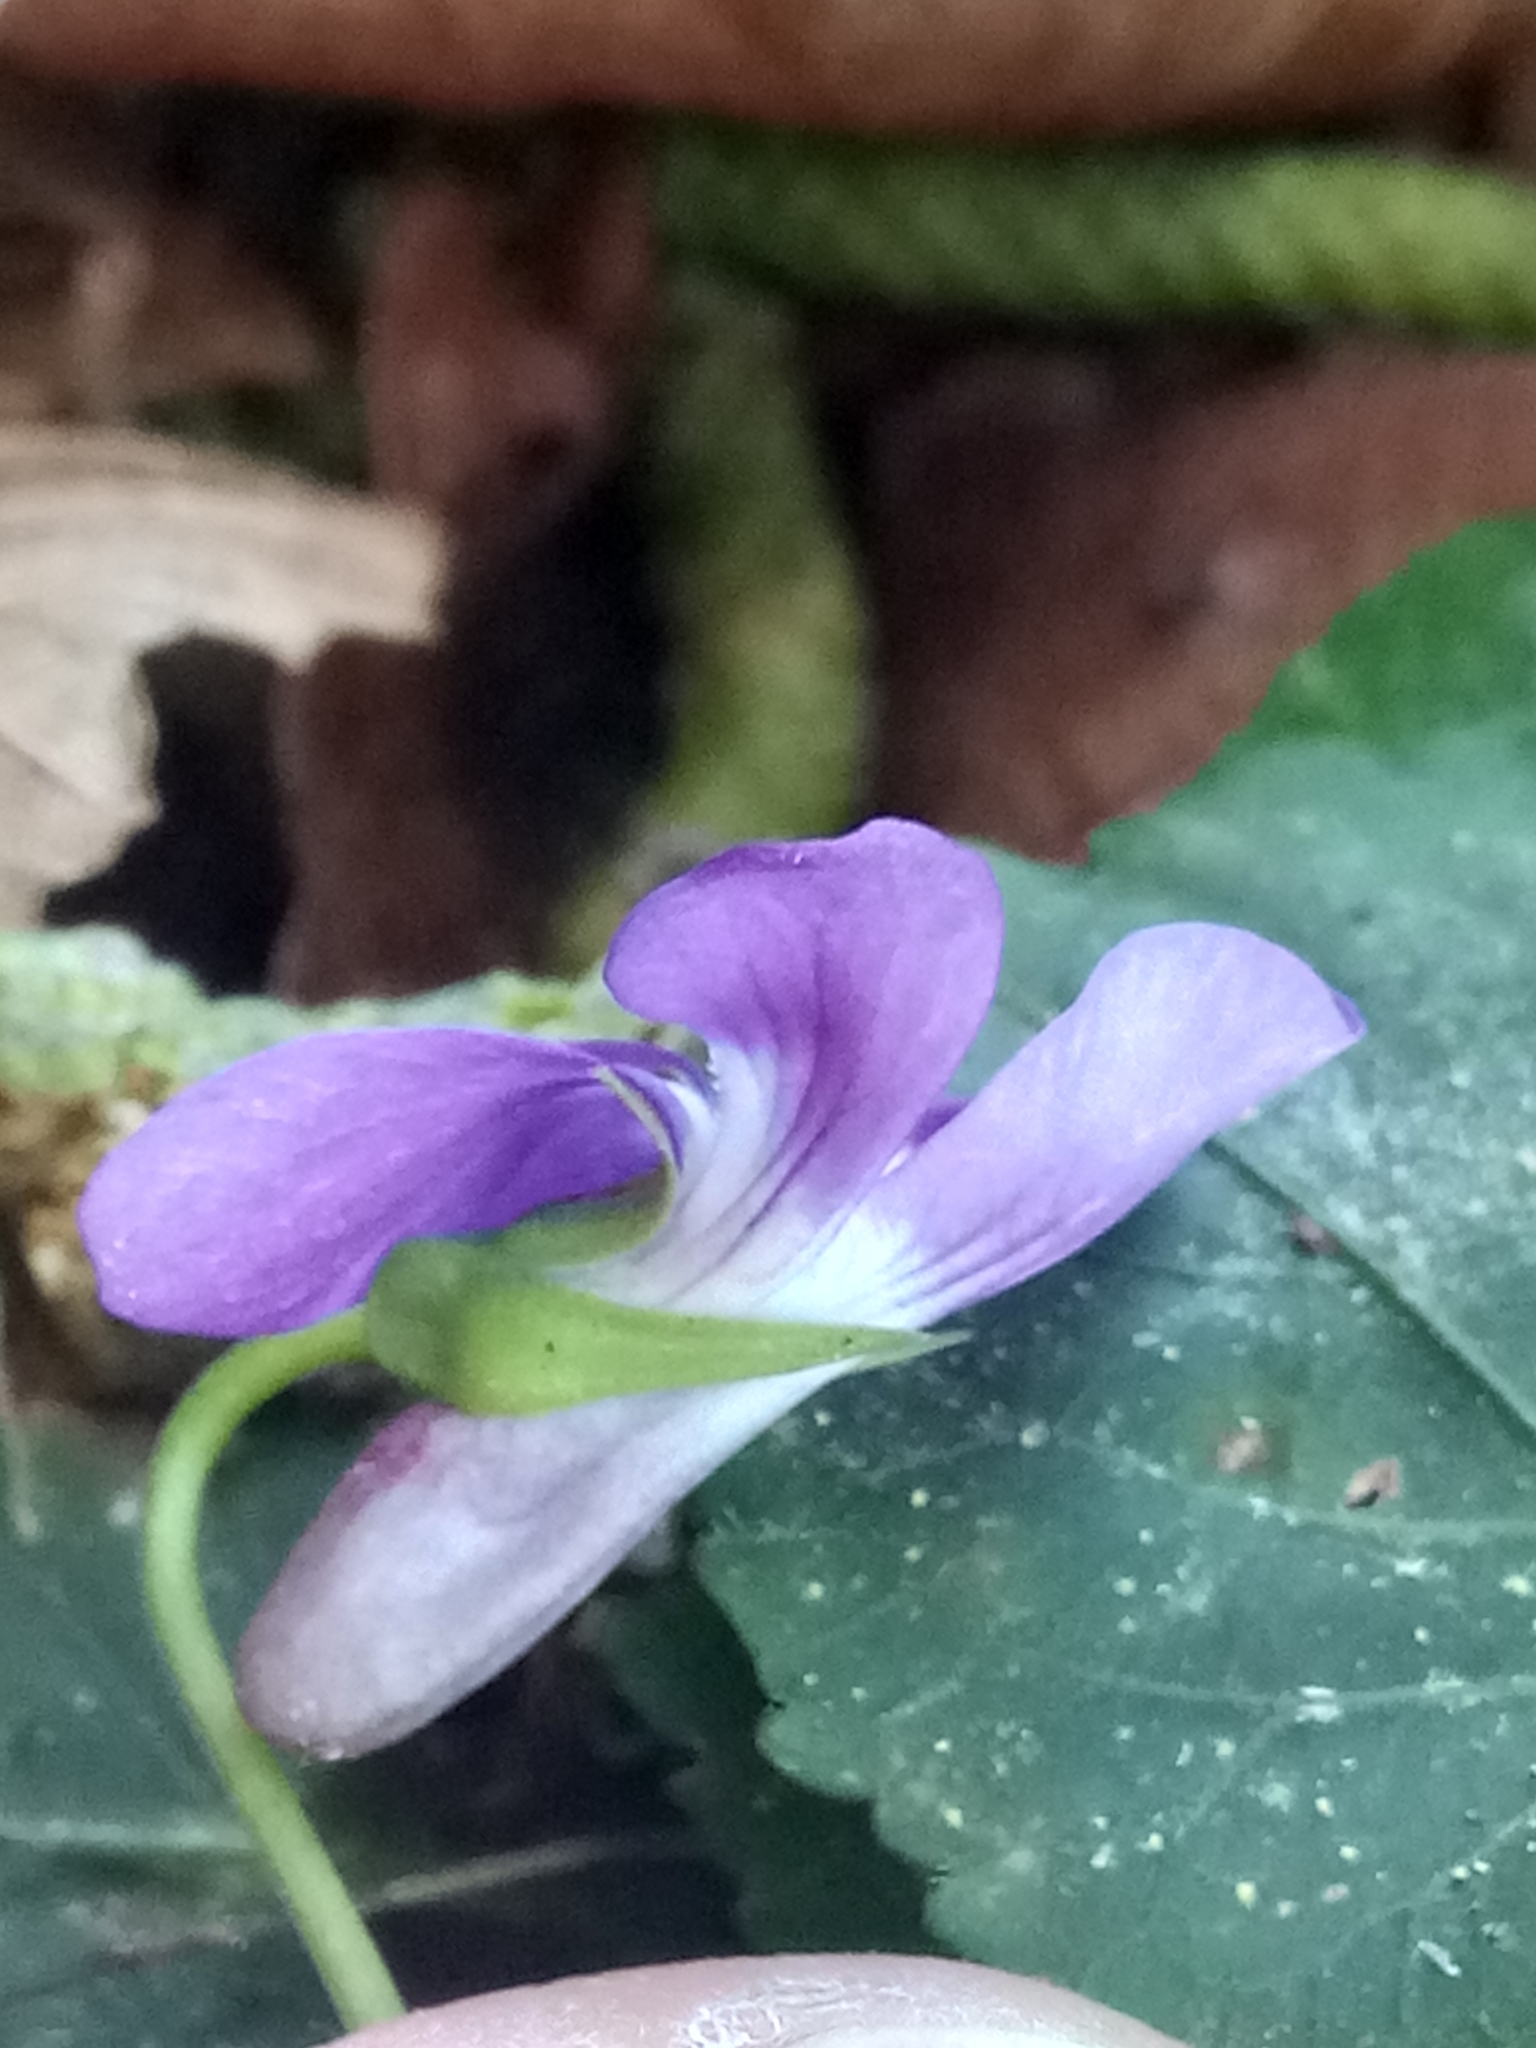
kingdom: Plantae
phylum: Tracheophyta
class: Magnoliopsida
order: Malpighiales
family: Violaceae
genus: Viola
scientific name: Viola reichenbachiana
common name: Early dog-violet
